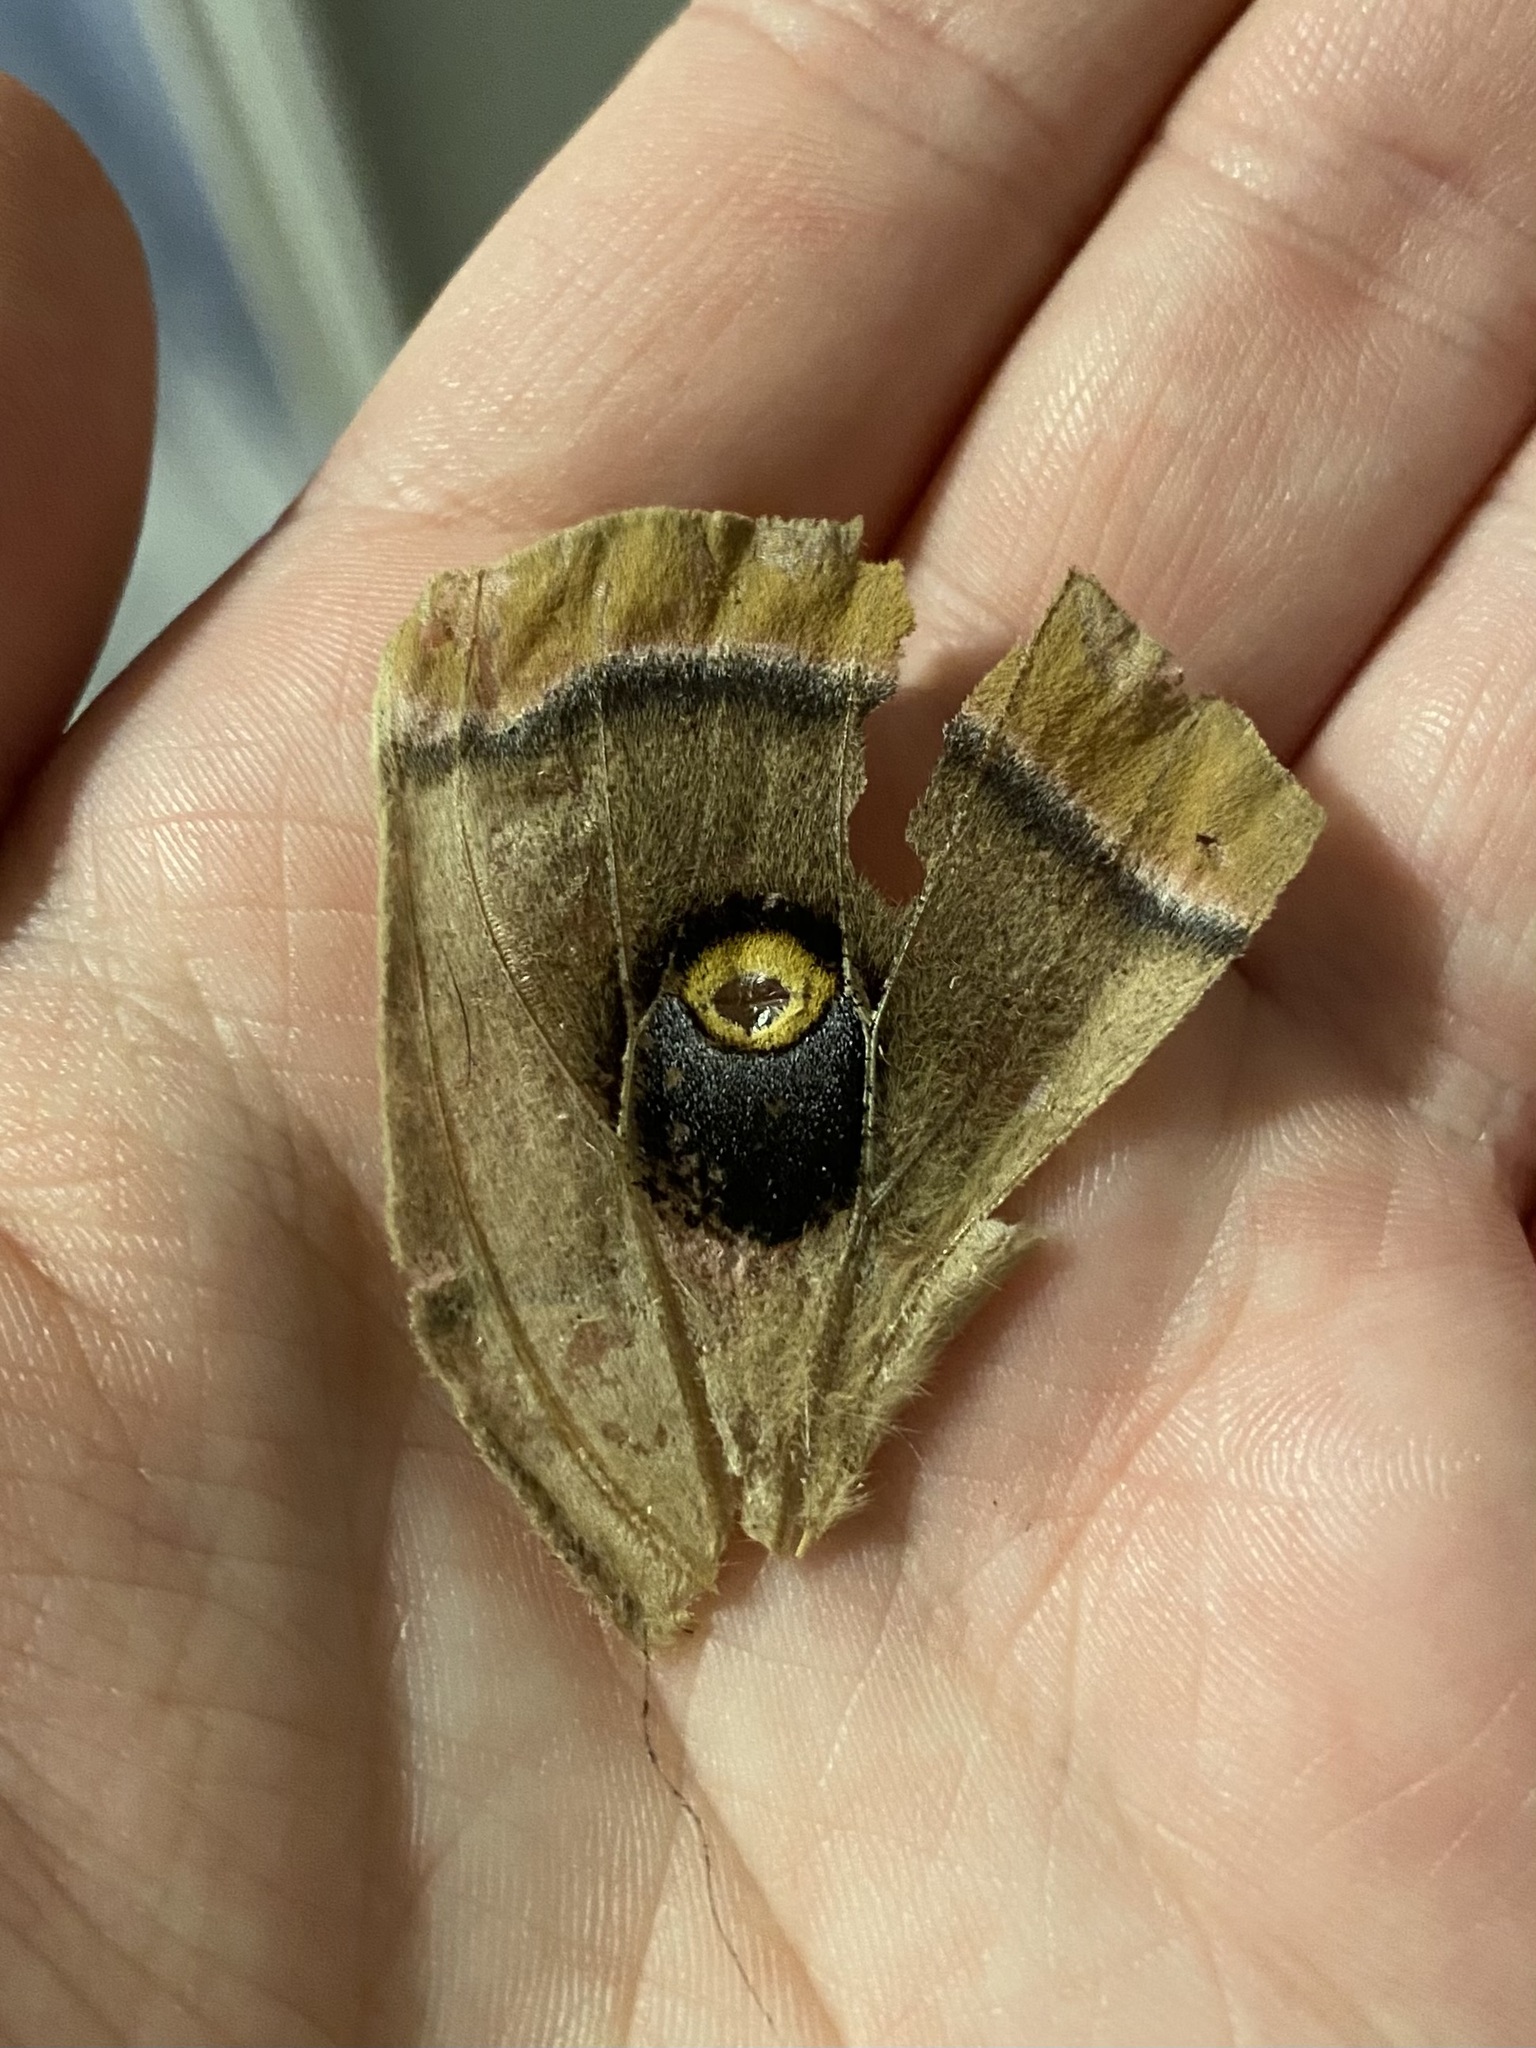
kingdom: Animalia
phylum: Arthropoda
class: Insecta
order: Lepidoptera
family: Saturniidae
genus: Antheraea
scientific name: Antheraea polyphemus
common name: Polyphemus moth
